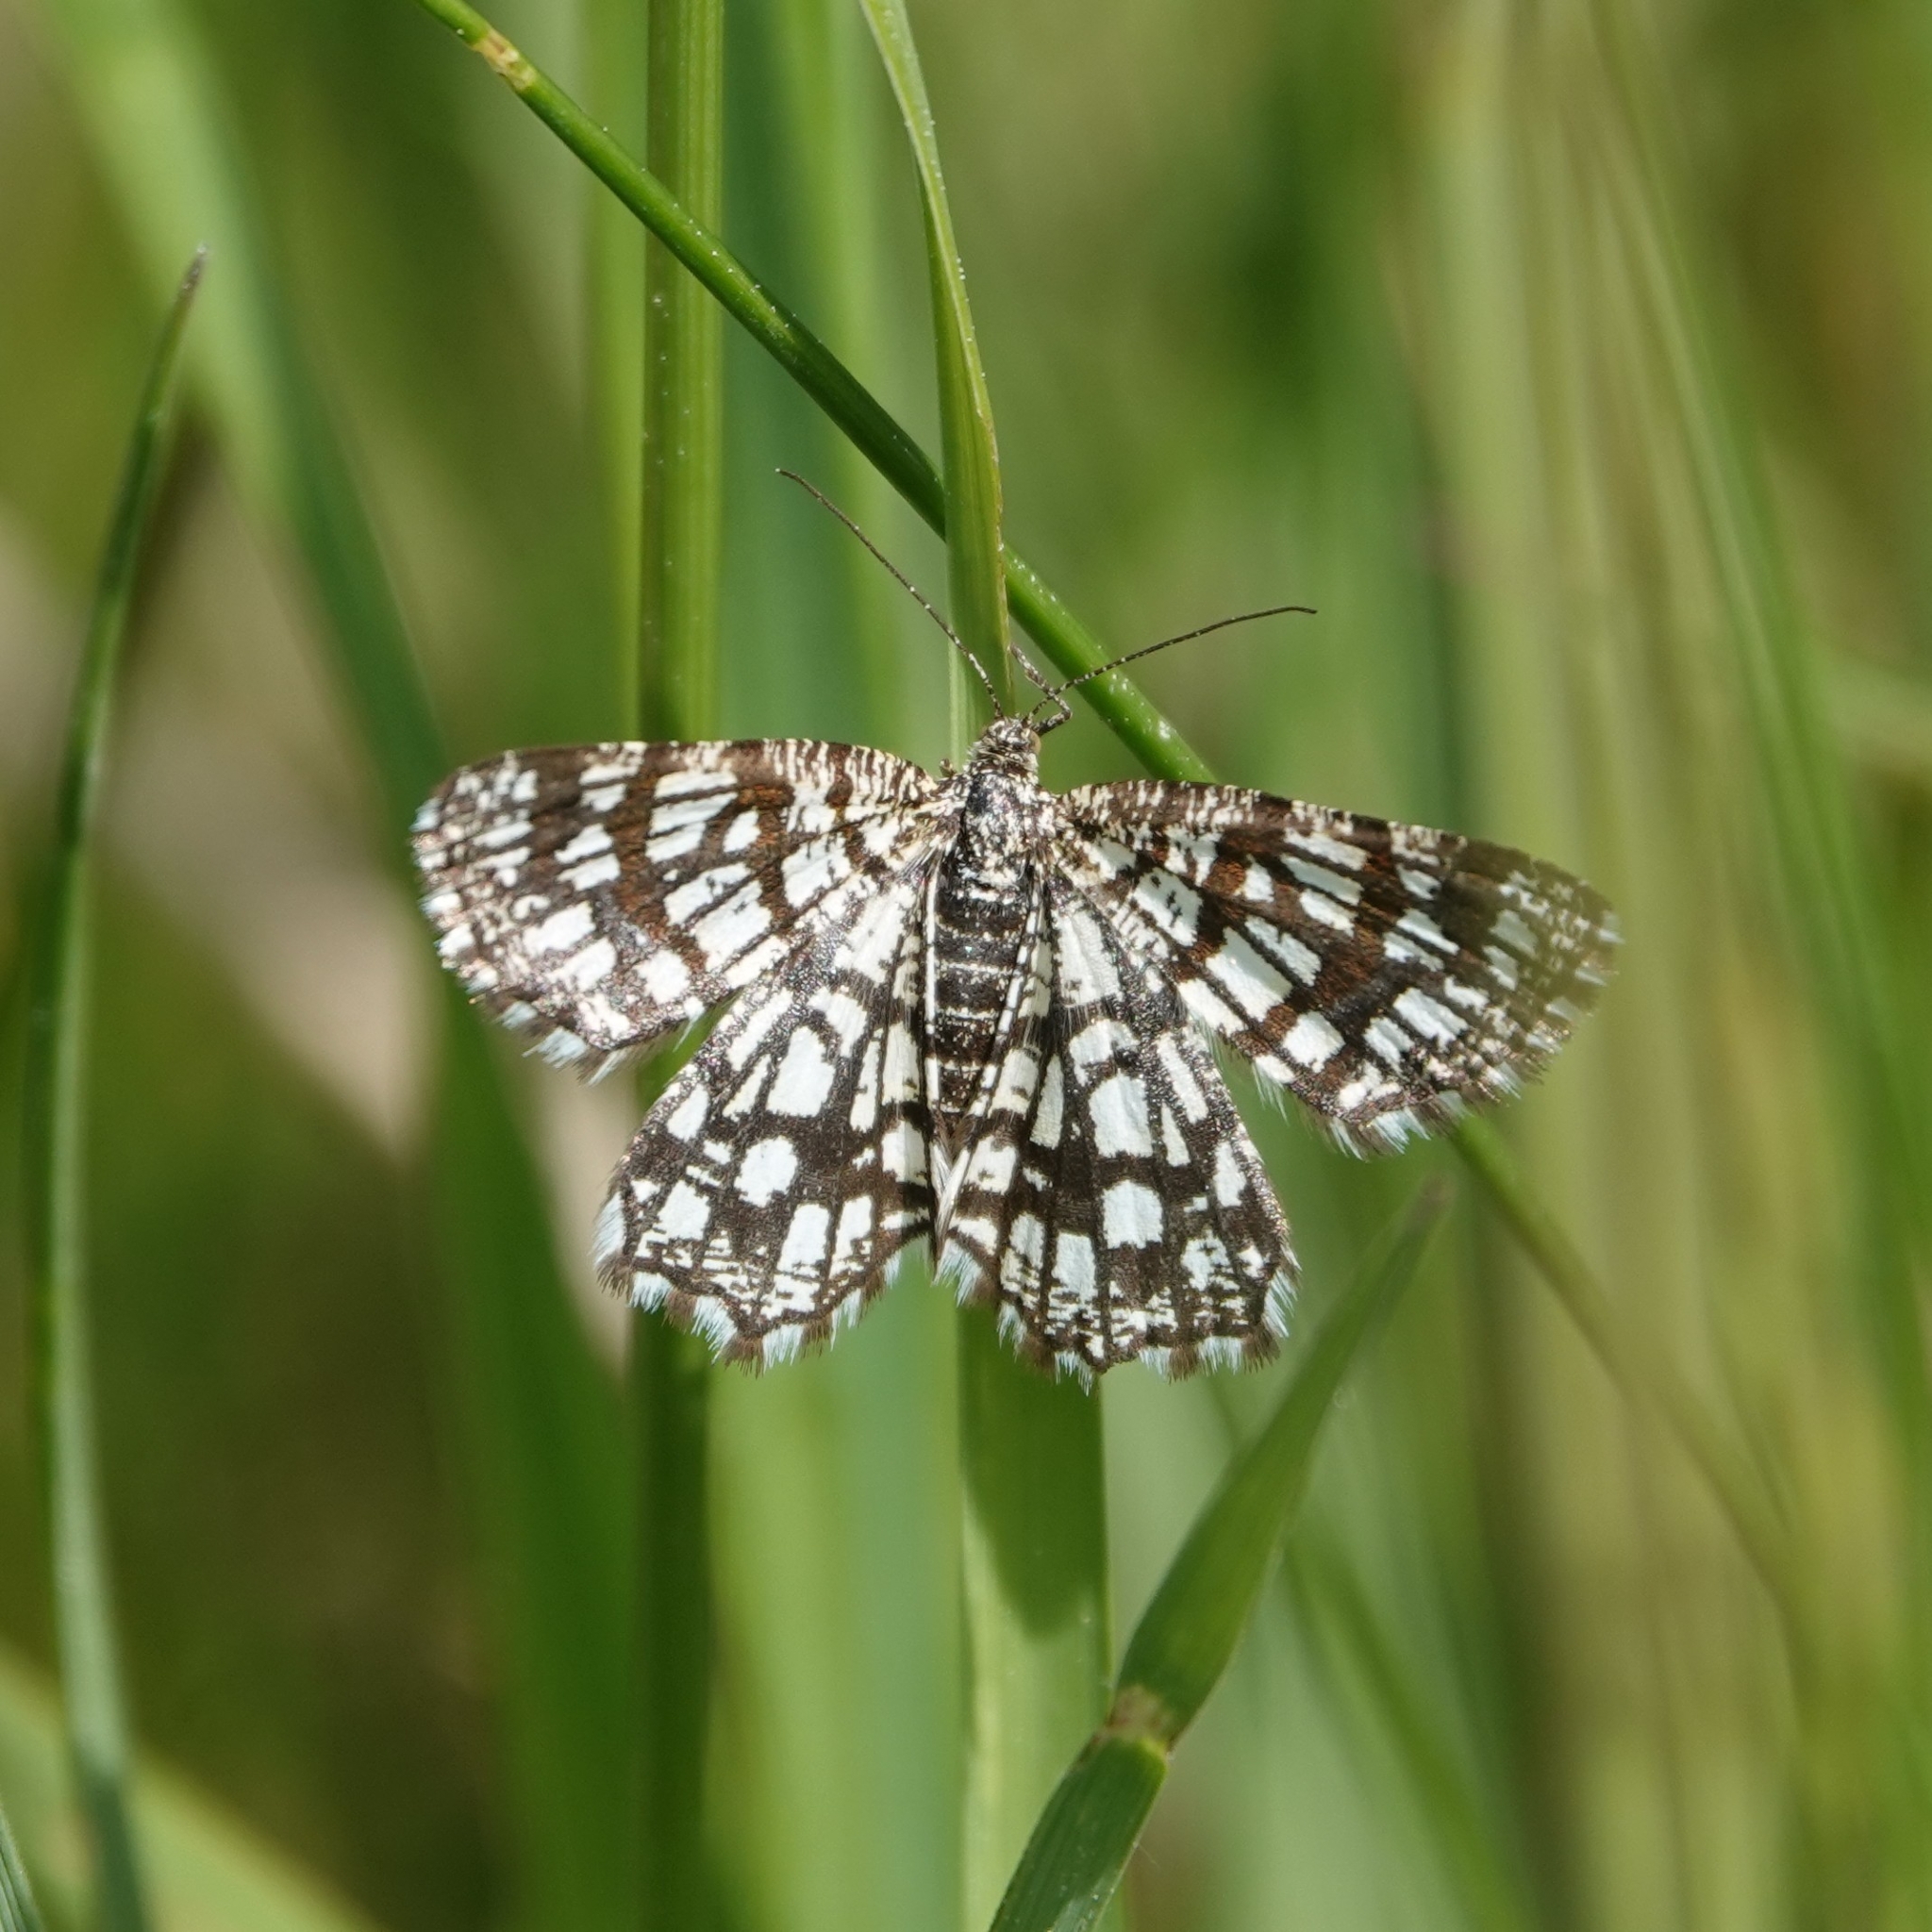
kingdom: Animalia
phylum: Arthropoda
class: Insecta
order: Lepidoptera
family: Geometridae
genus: Chiasmia
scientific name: Chiasmia clathrata
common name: Latticed heath
